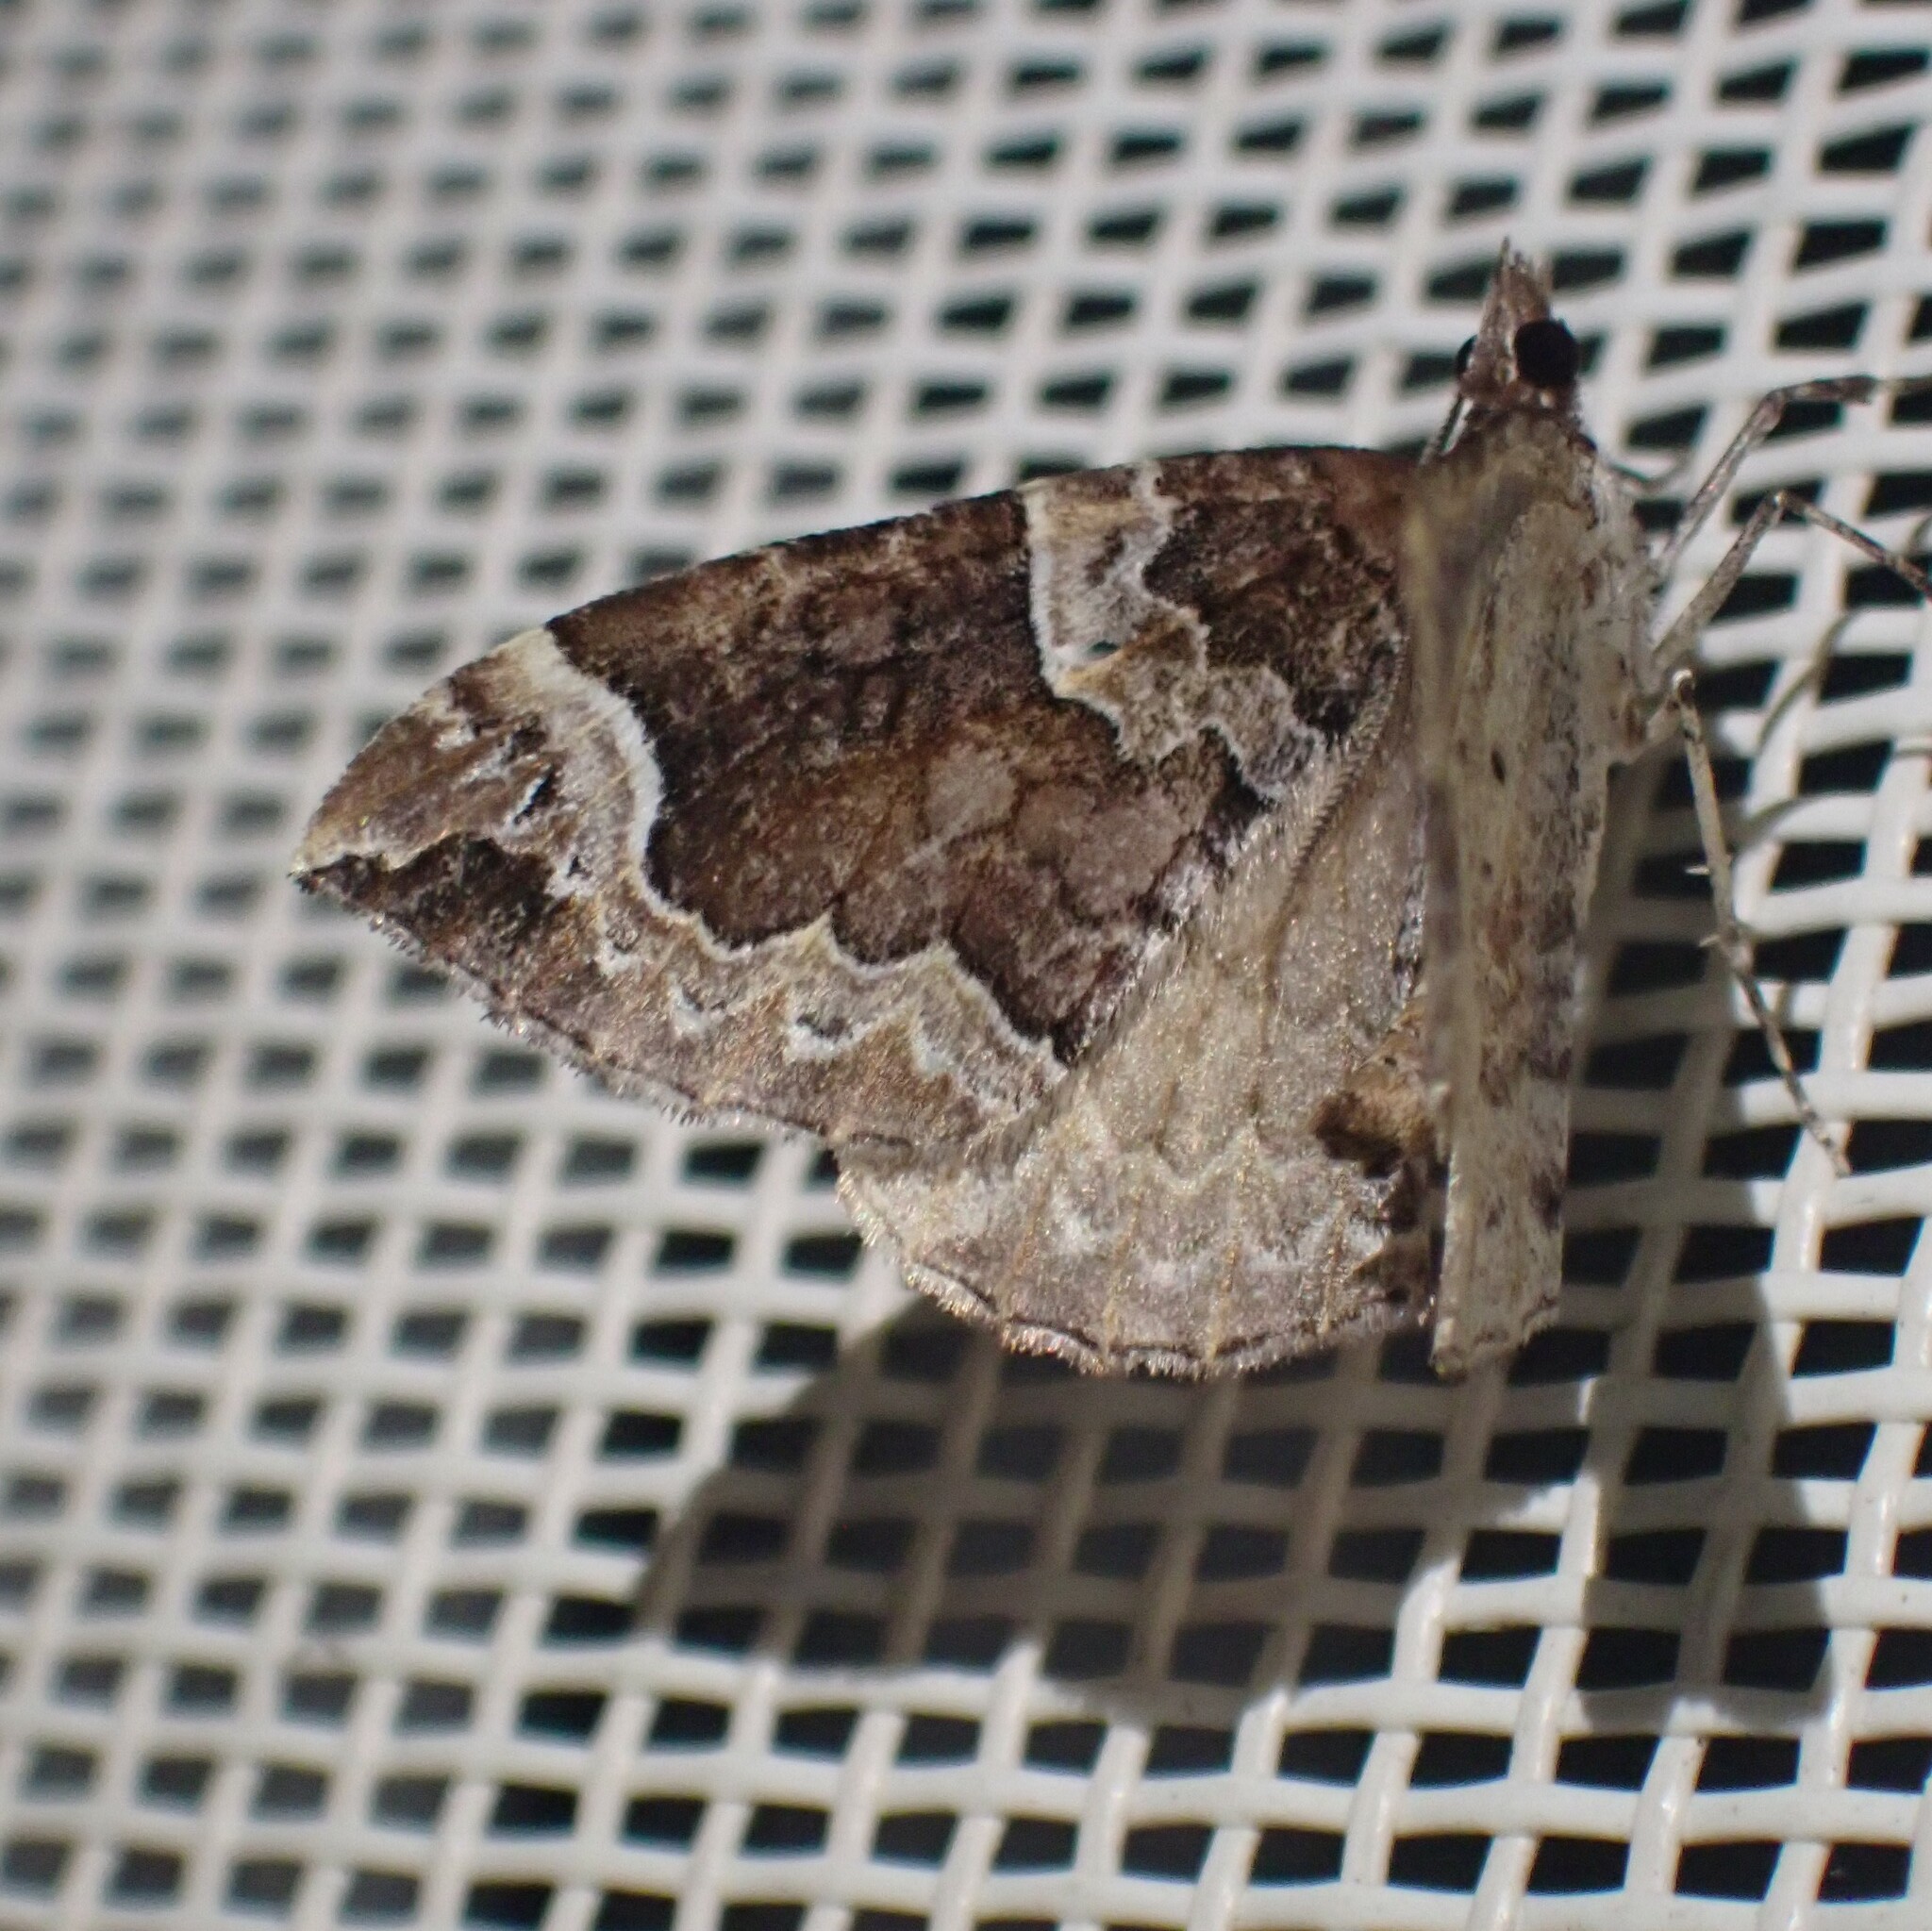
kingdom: Animalia
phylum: Arthropoda
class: Insecta
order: Lepidoptera
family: Geometridae
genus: Eulithis
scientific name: Eulithis xylina
